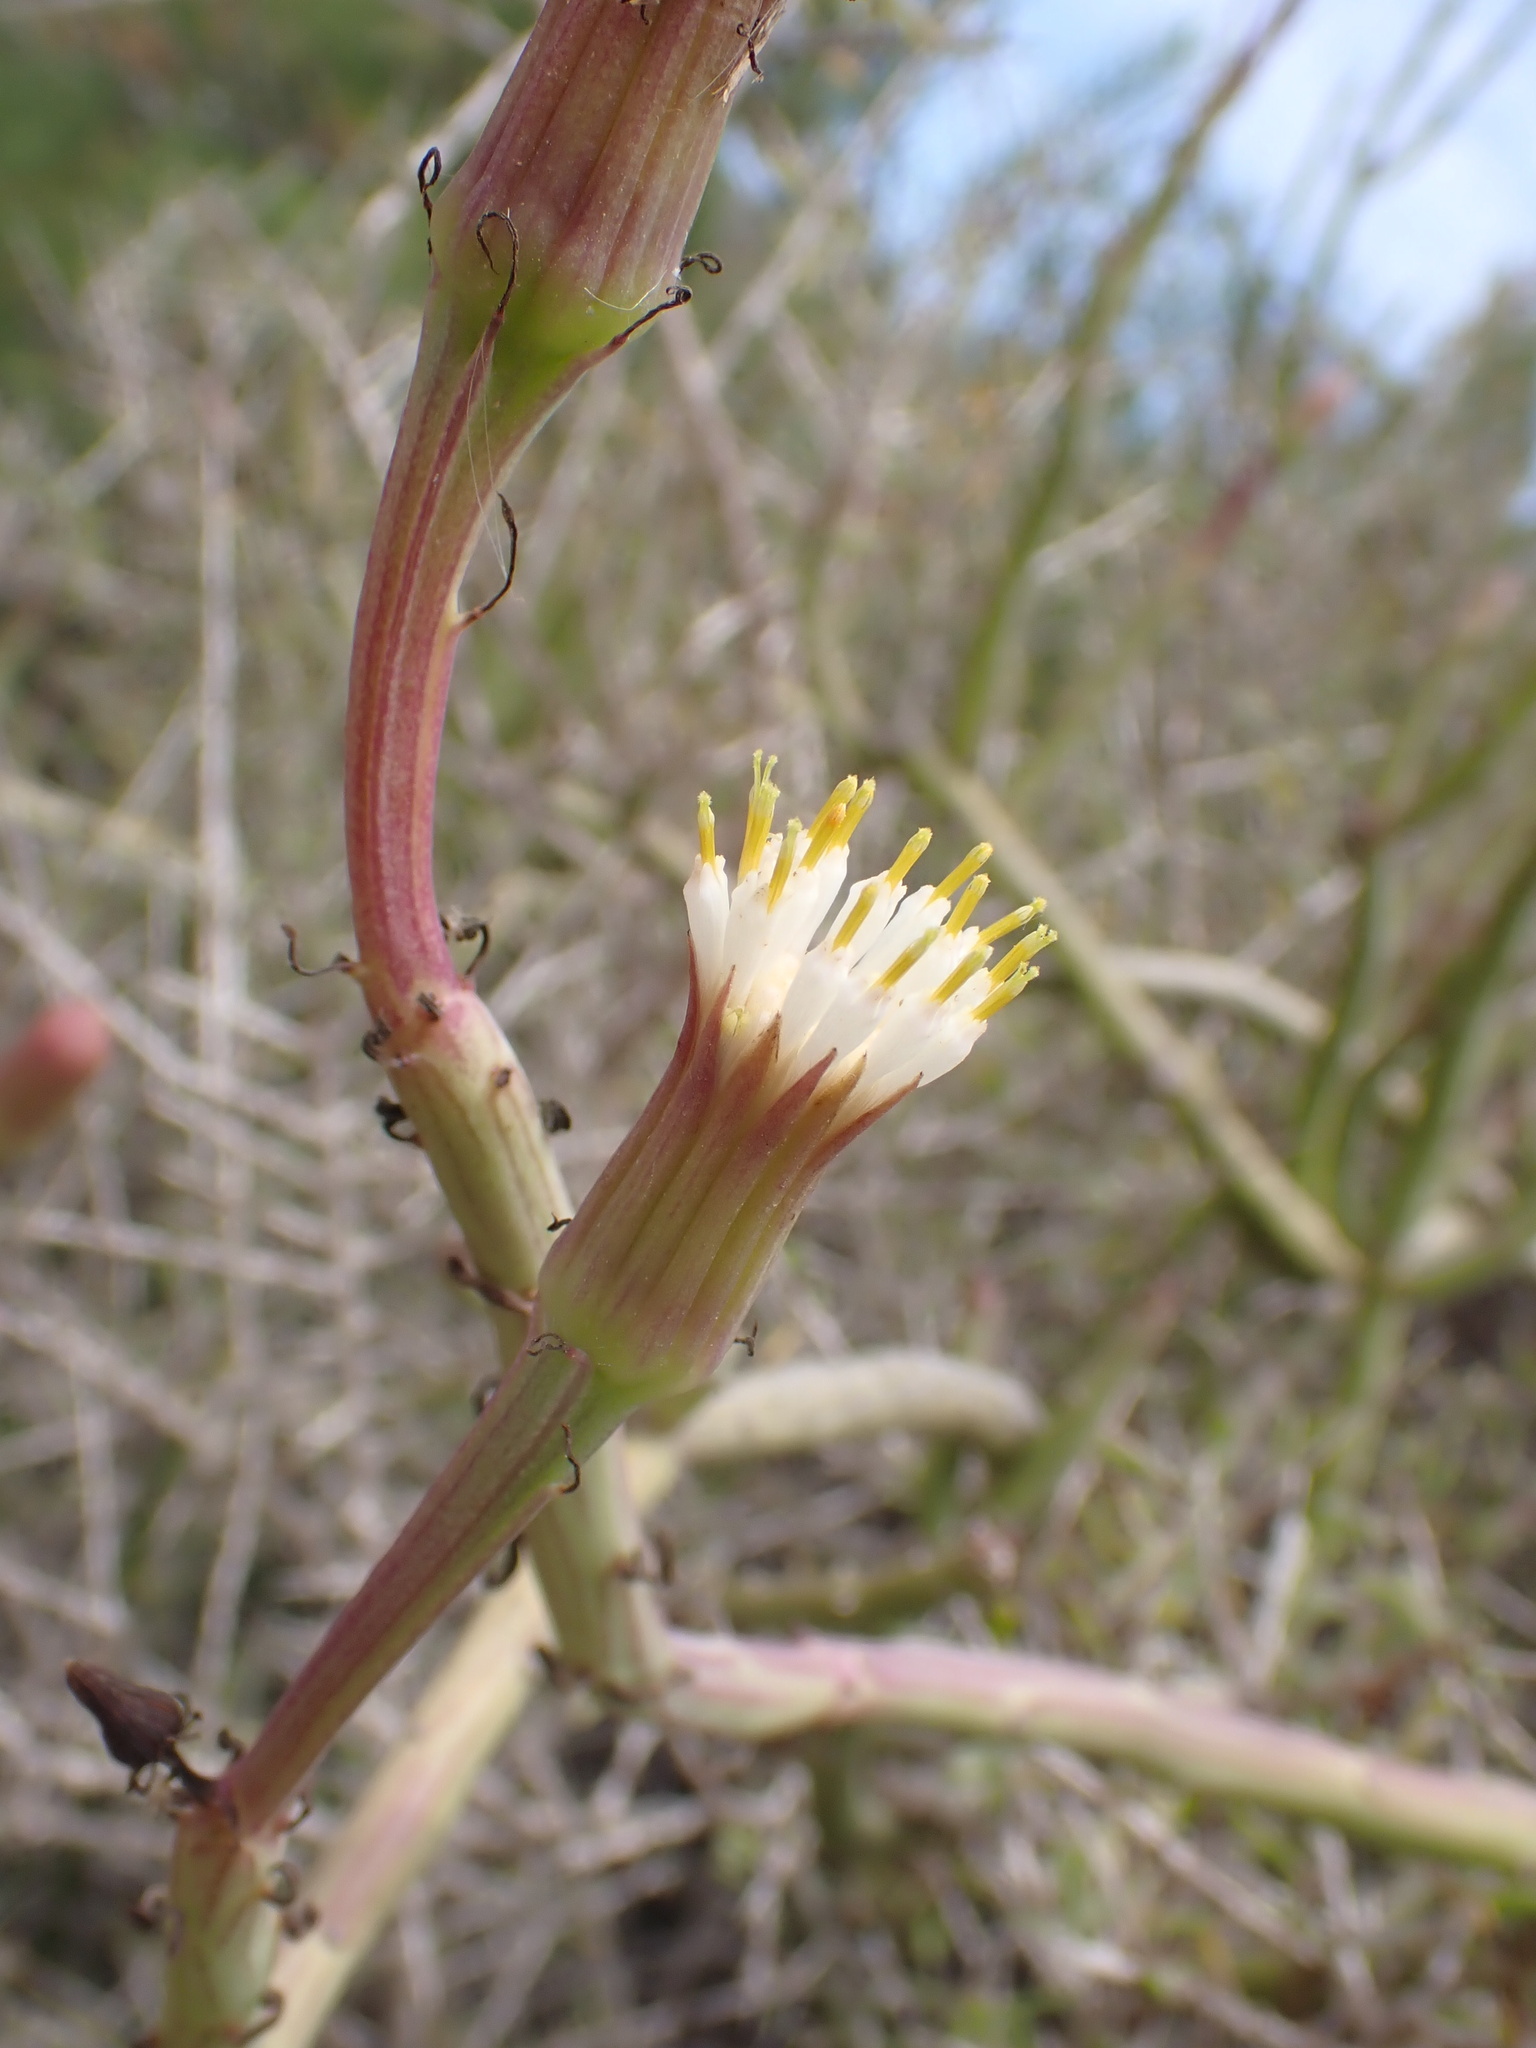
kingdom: Plantae
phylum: Tracheophyta
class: Magnoliopsida
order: Asterales
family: Asteraceae
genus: Kleinia
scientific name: Kleinia anteuphorbium
